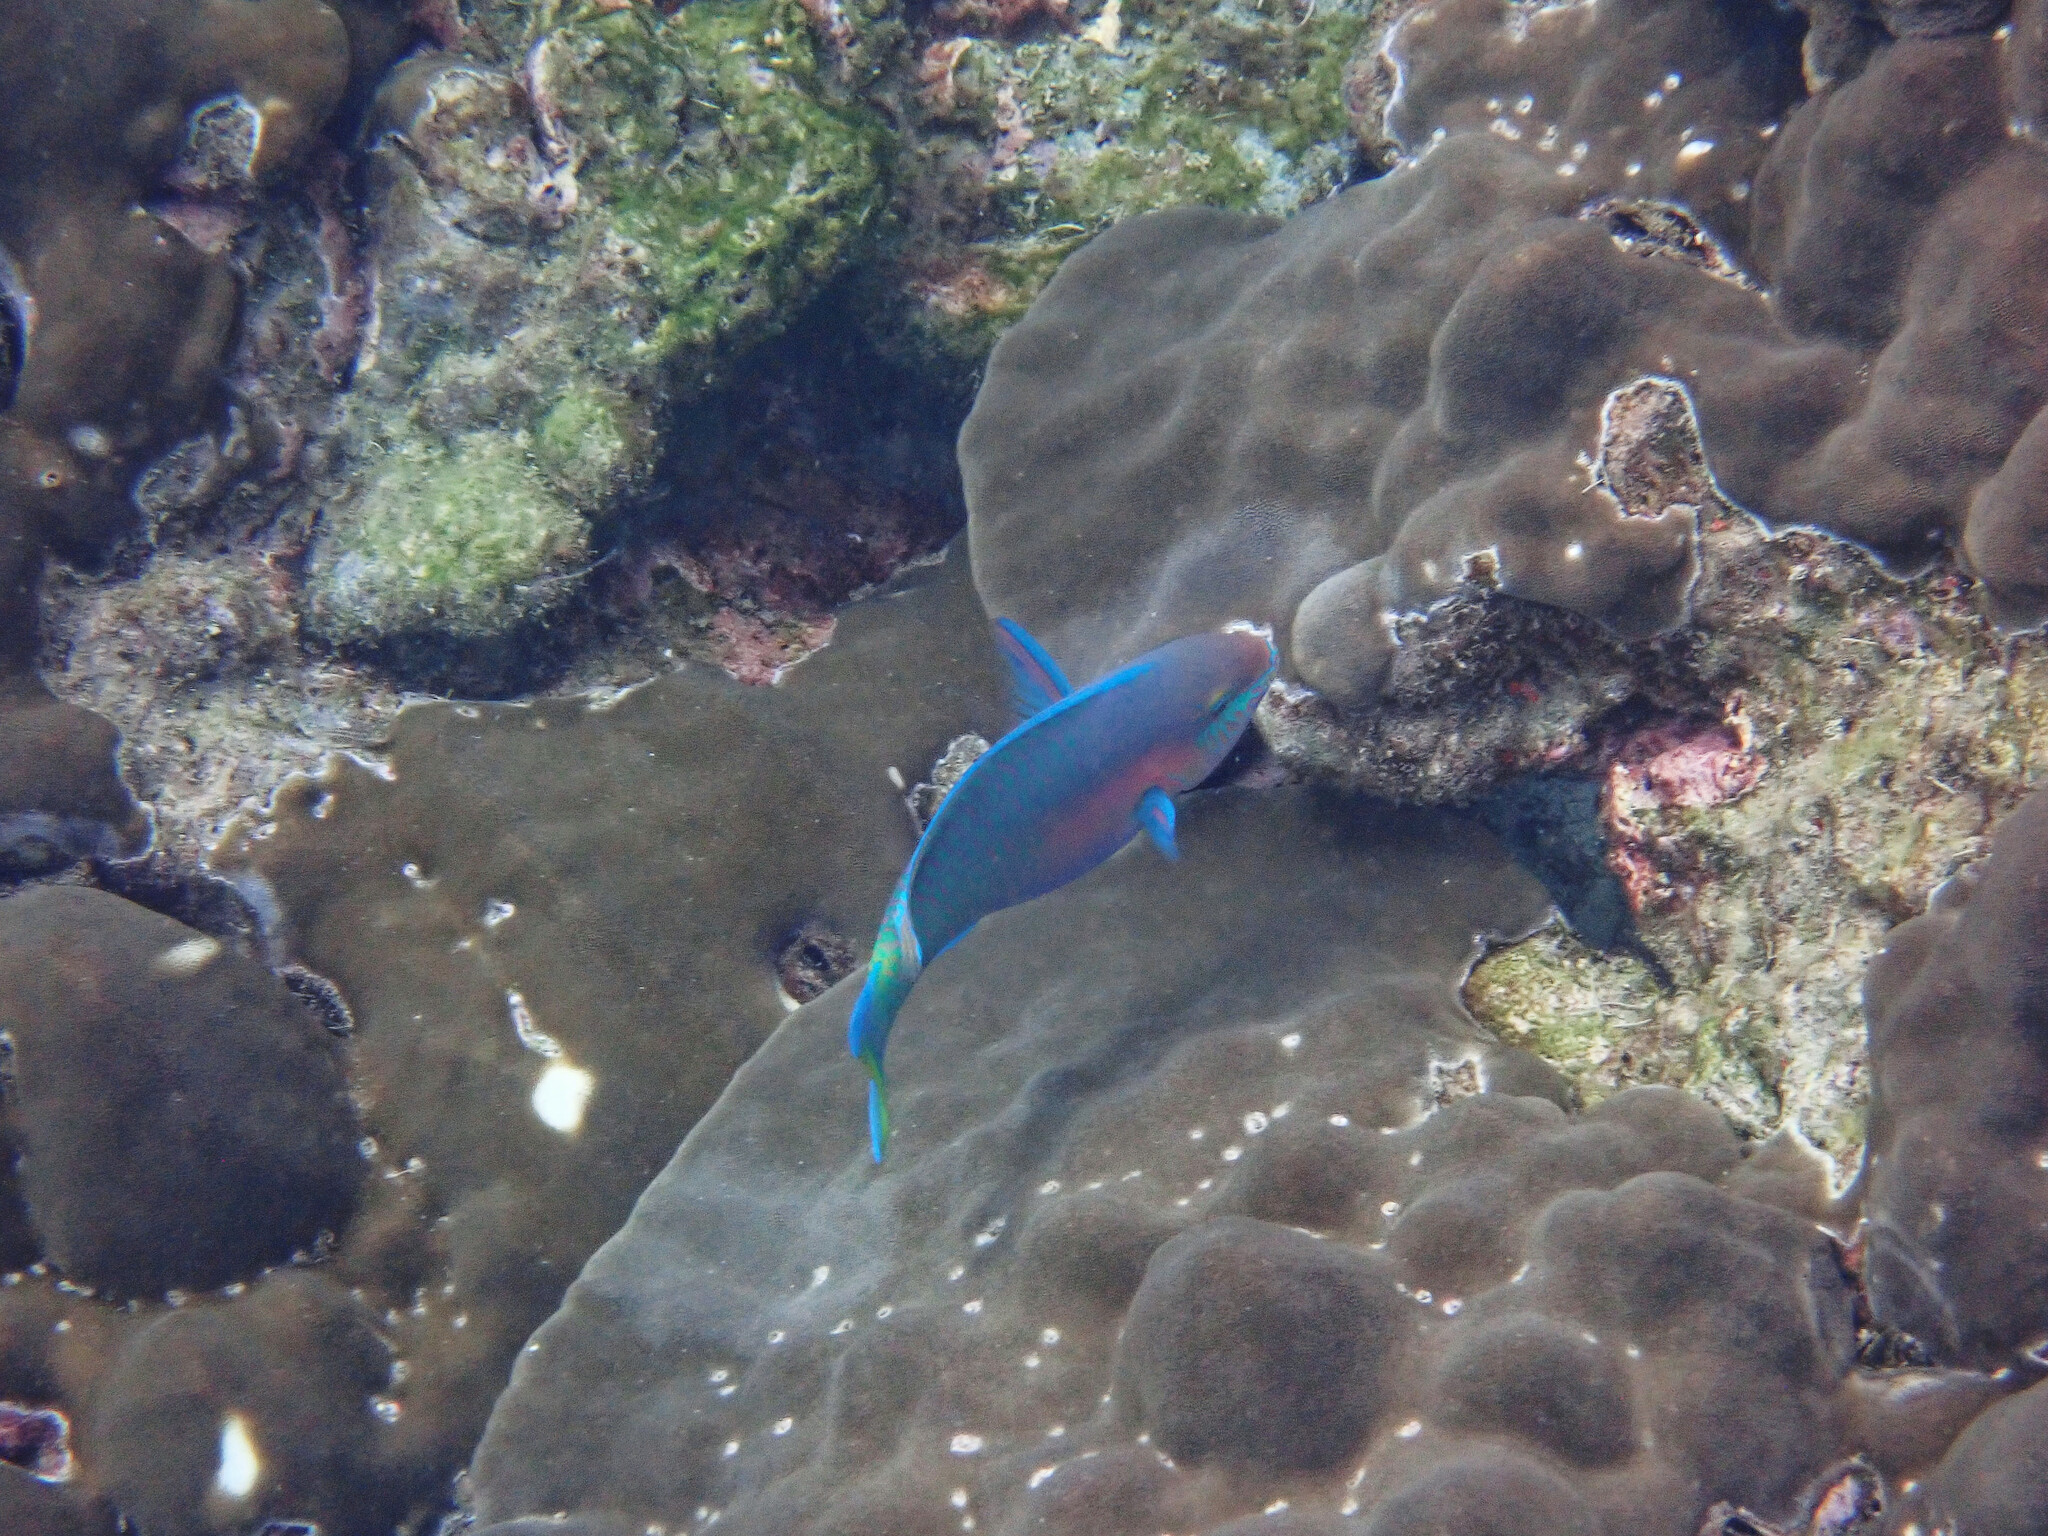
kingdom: Animalia
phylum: Chordata
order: Perciformes
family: Scaridae
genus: Scarus
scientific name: Scarus quoyi
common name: Quoy's parrotfish
